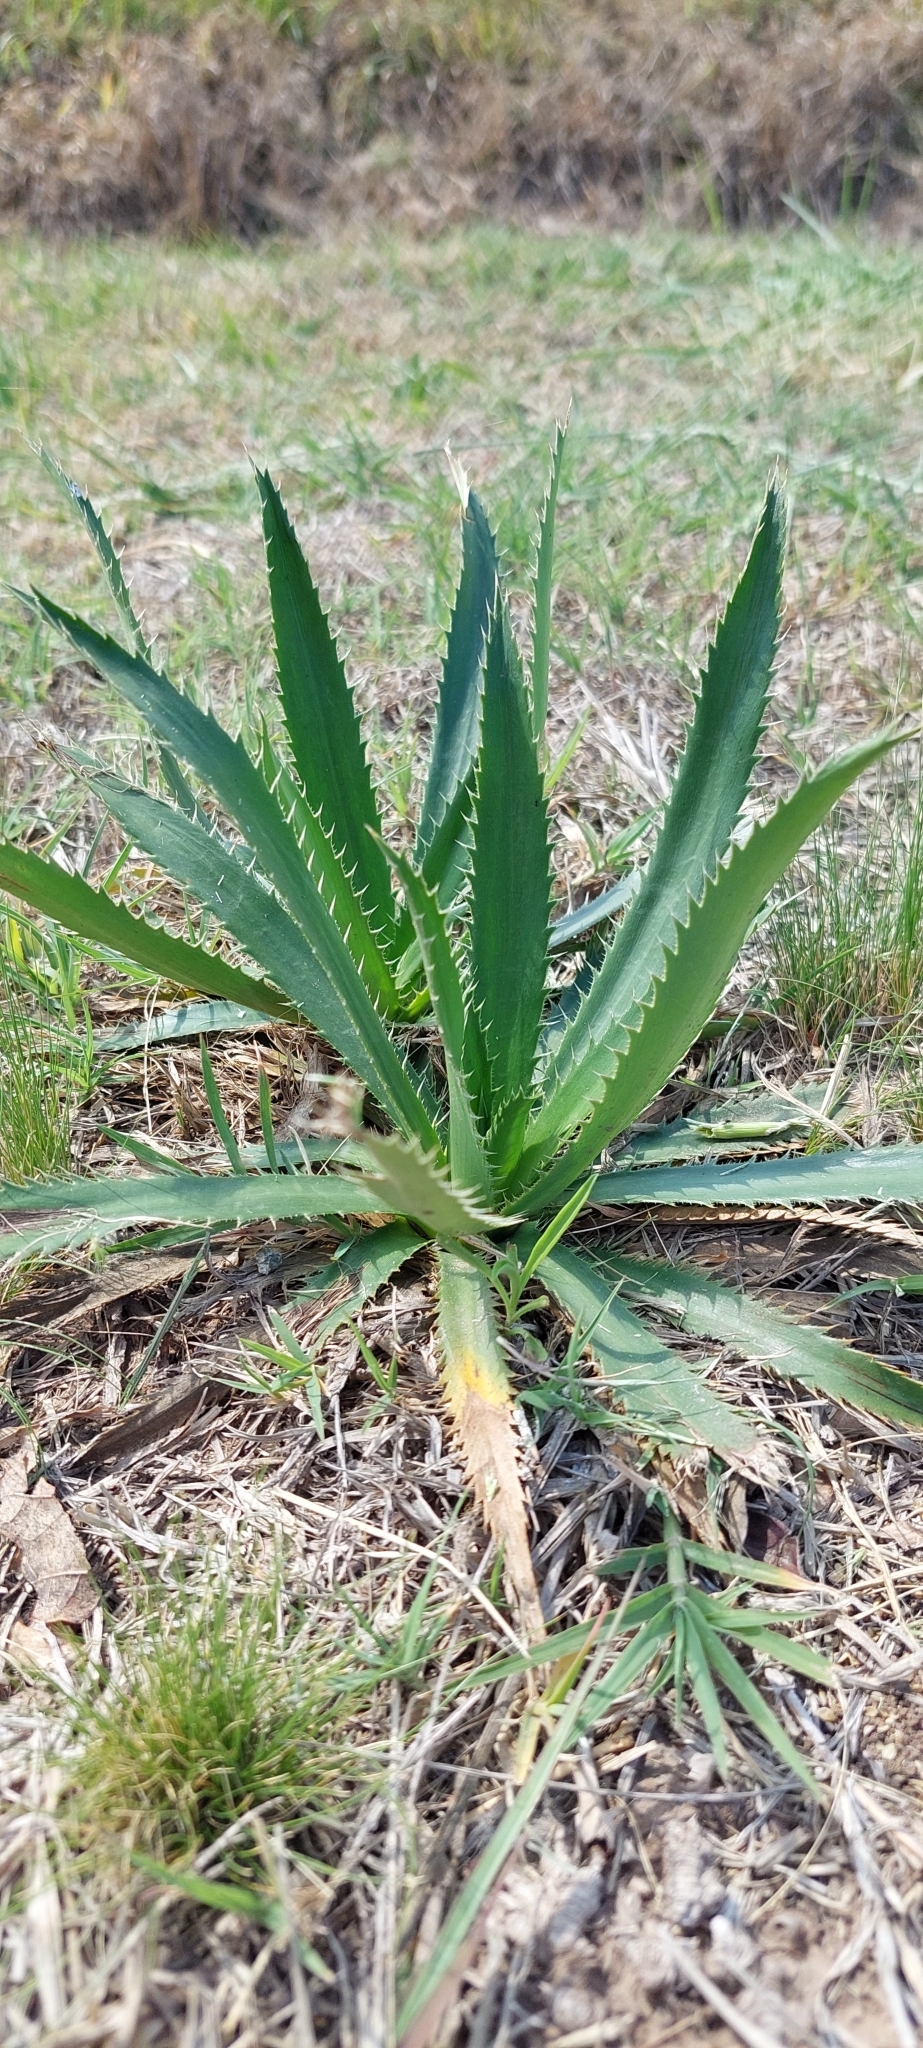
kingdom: Plantae
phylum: Tracheophyta
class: Magnoliopsida
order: Apiales
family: Apiaceae
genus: Eryngium
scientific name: Eryngium elegans
